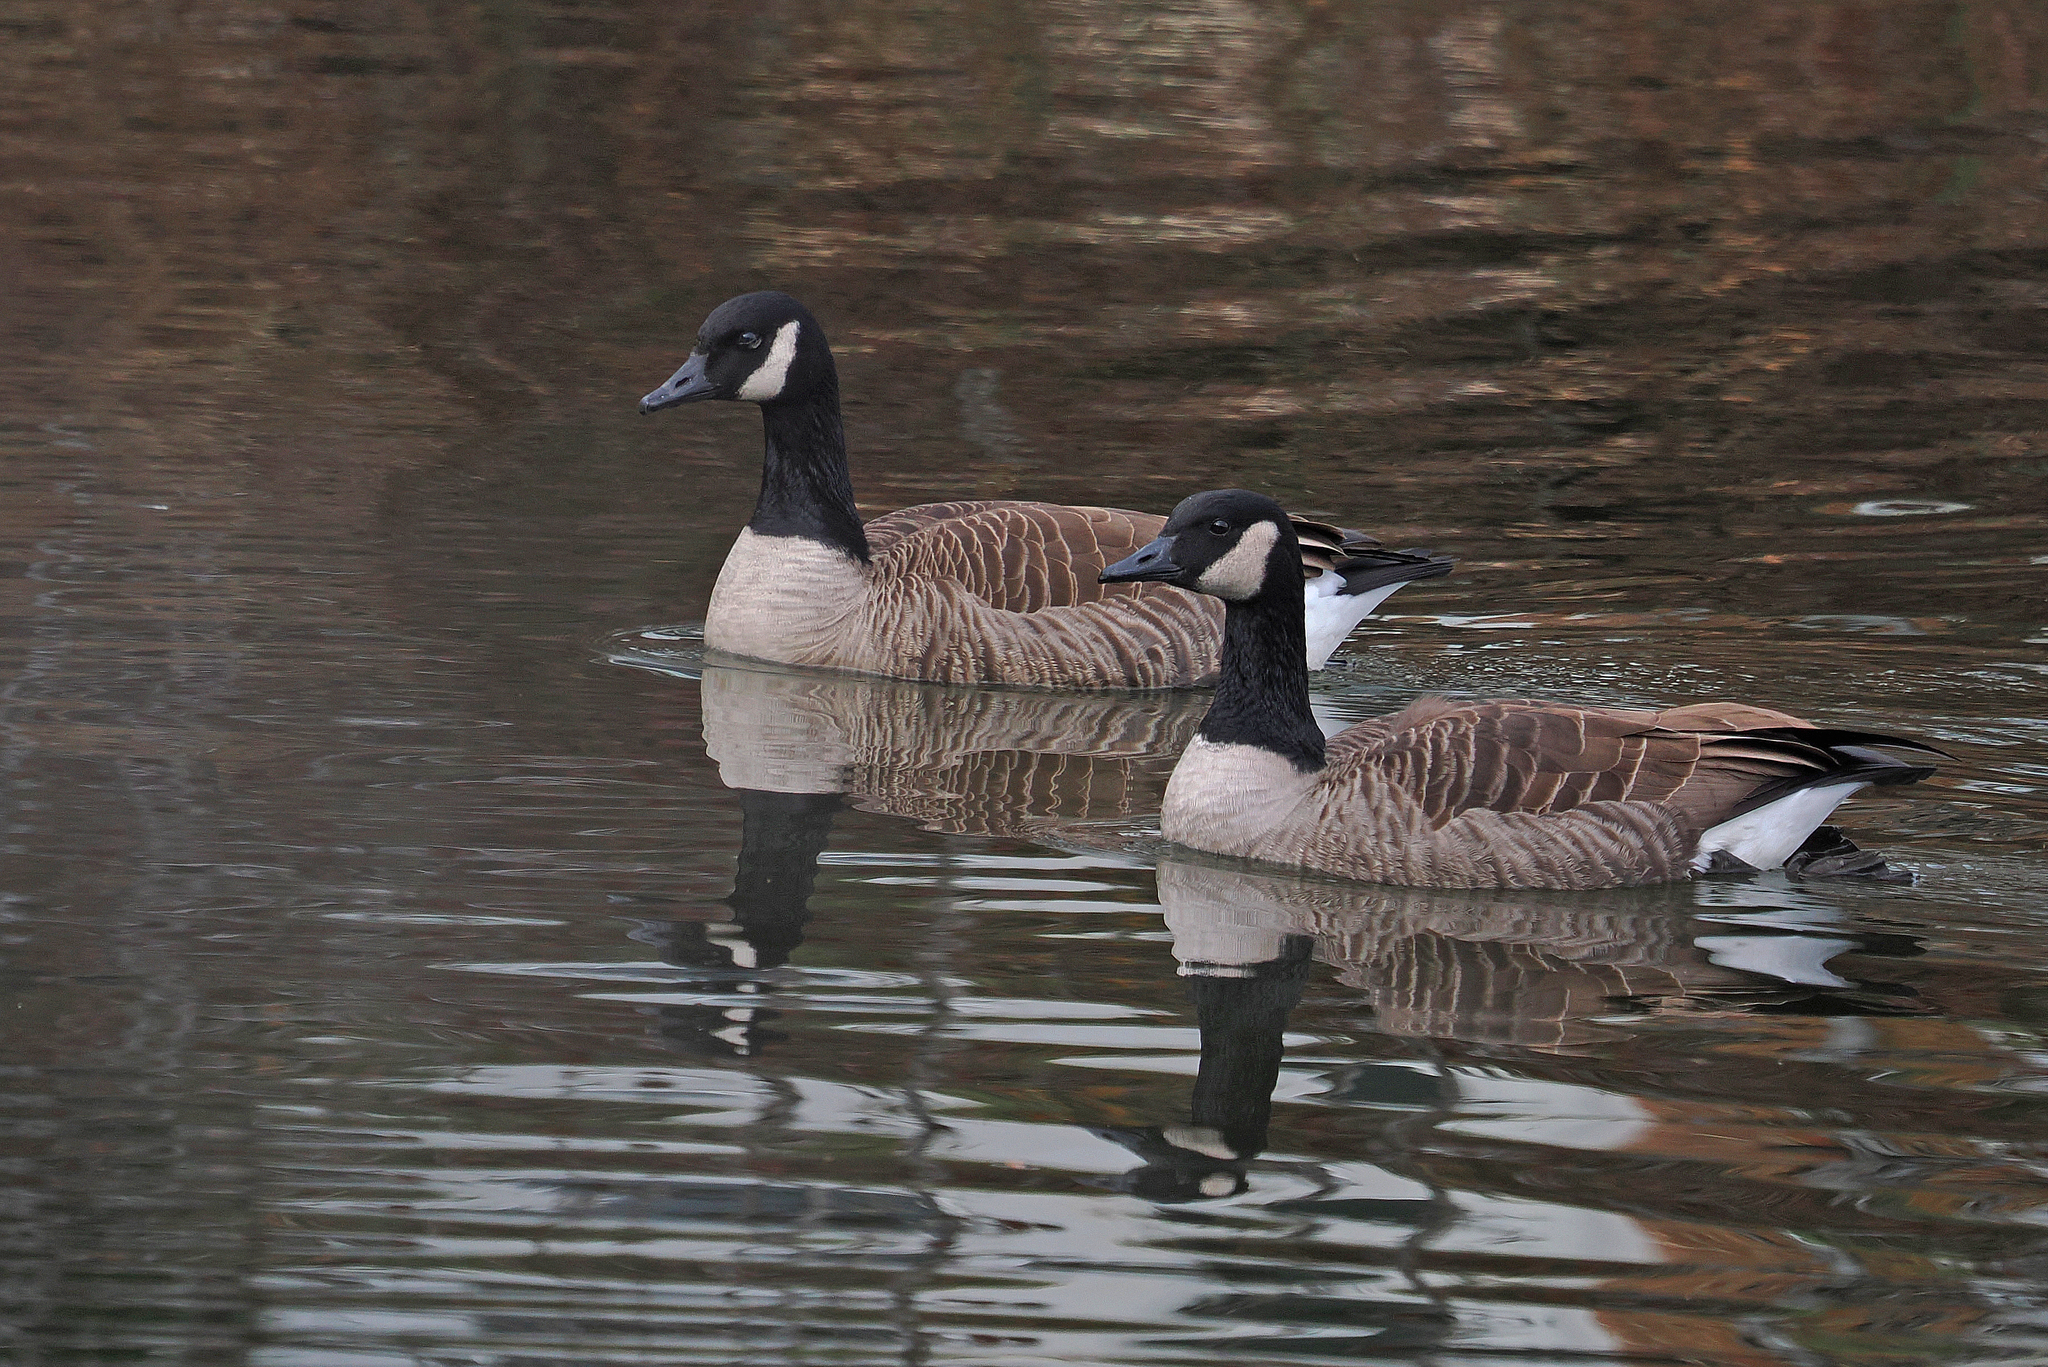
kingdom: Animalia
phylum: Chordata
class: Aves
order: Anseriformes
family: Anatidae
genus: Branta
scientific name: Branta canadensis
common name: Canada goose
